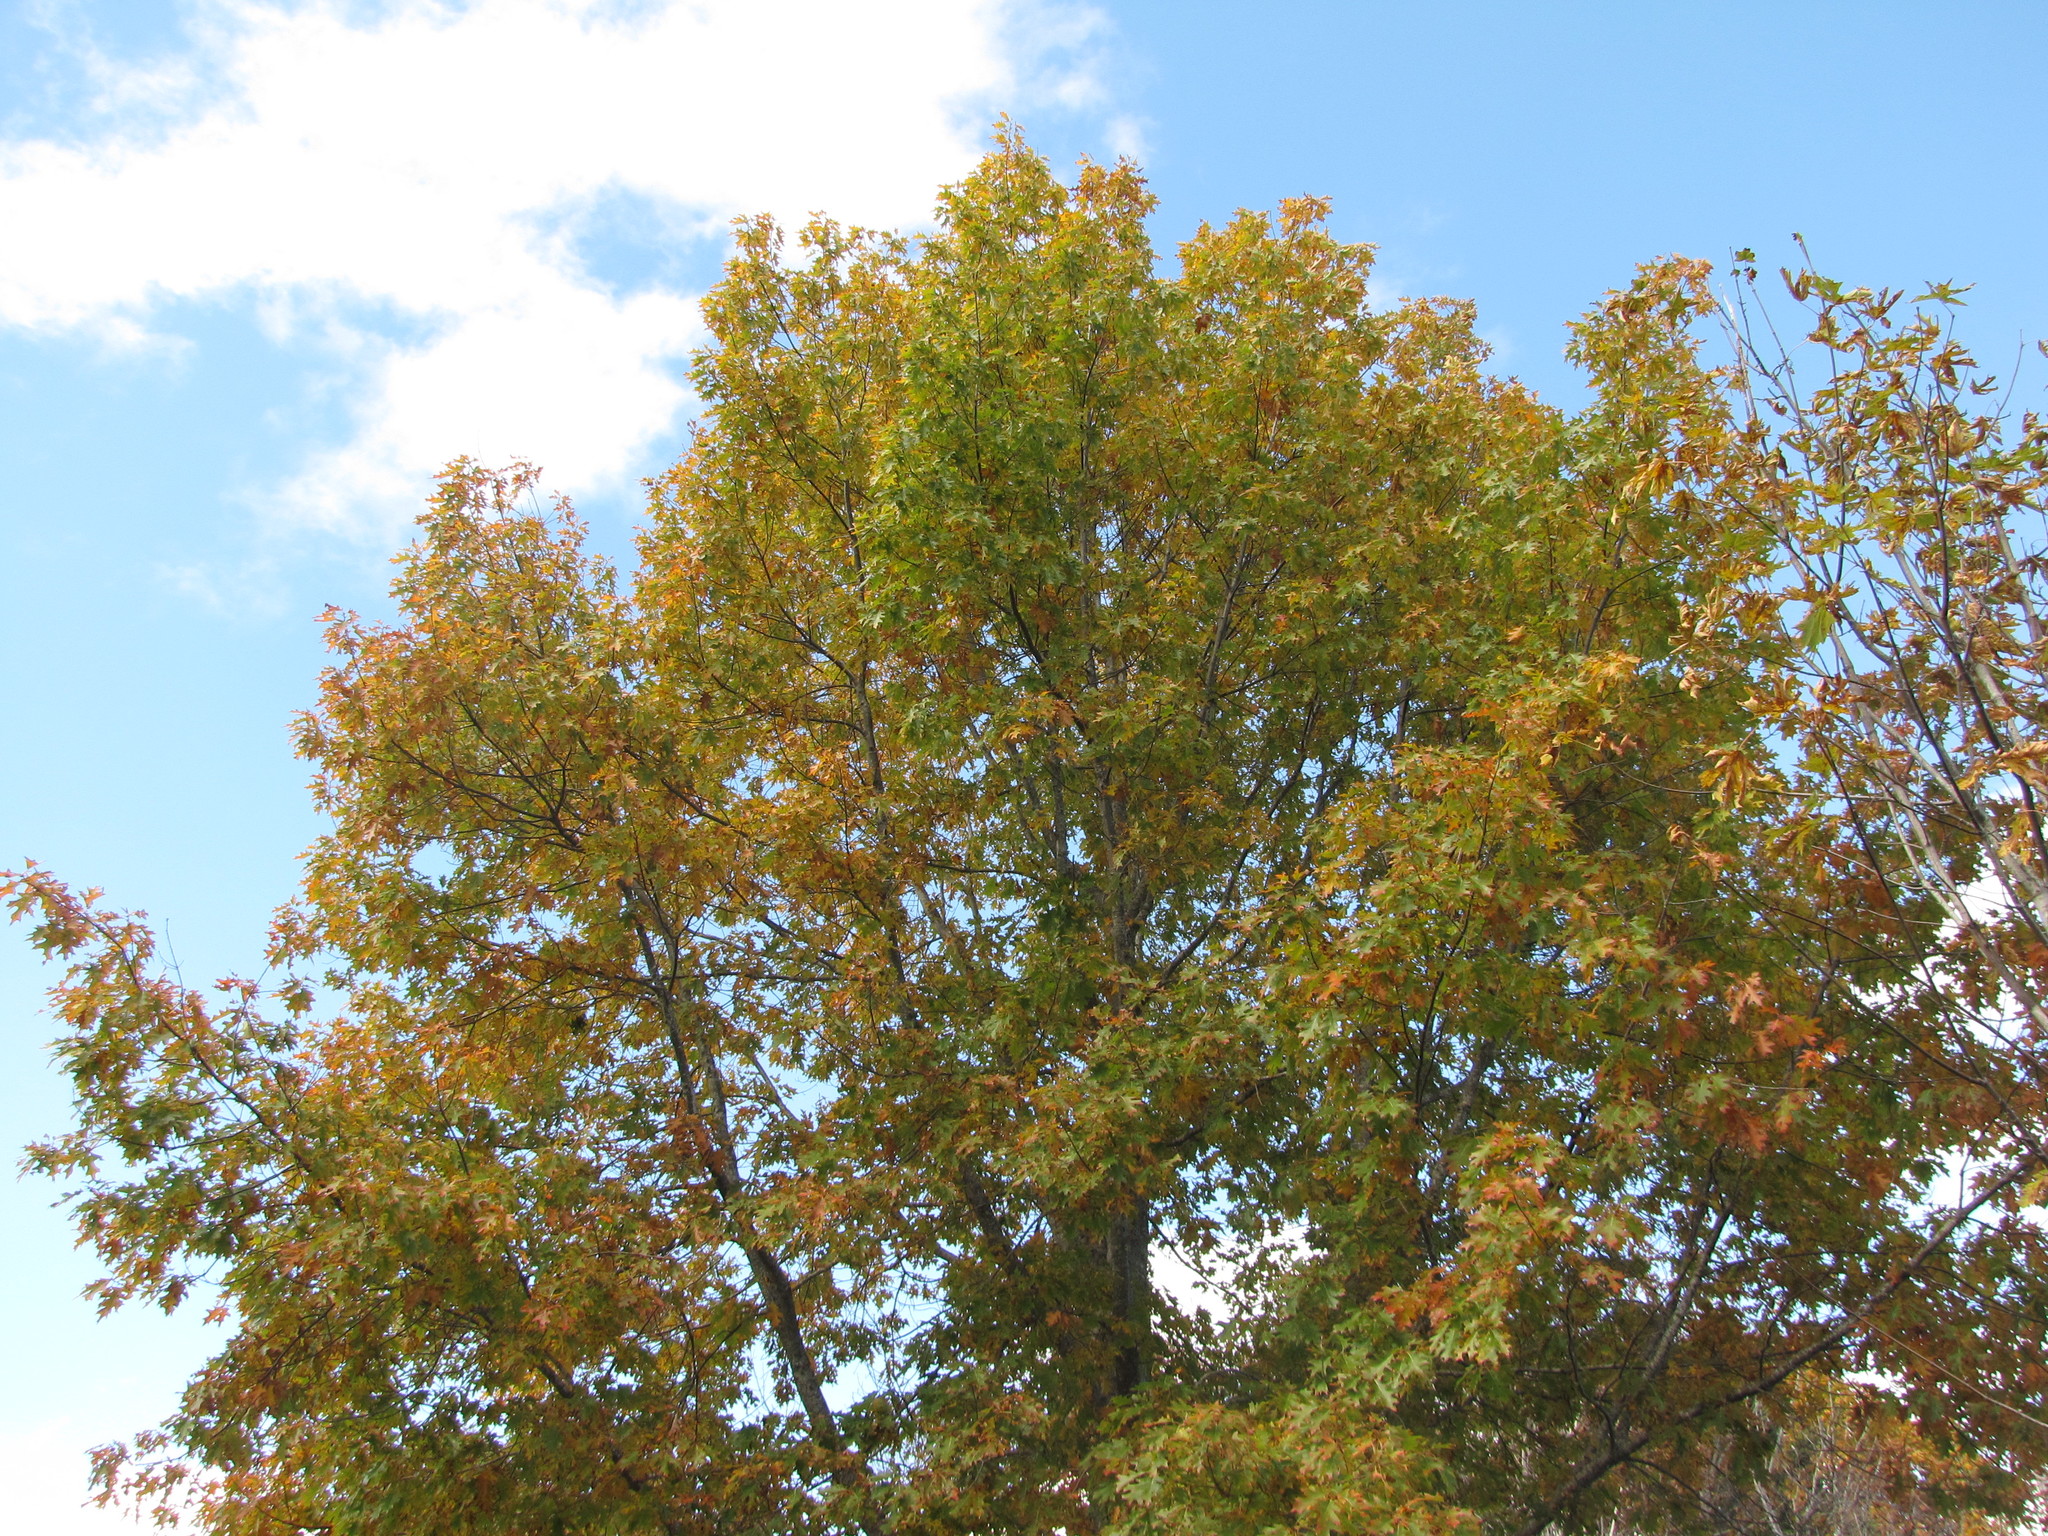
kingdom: Plantae
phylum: Tracheophyta
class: Magnoliopsida
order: Fagales
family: Fagaceae
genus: Quercus
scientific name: Quercus rubra
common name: Red oak
